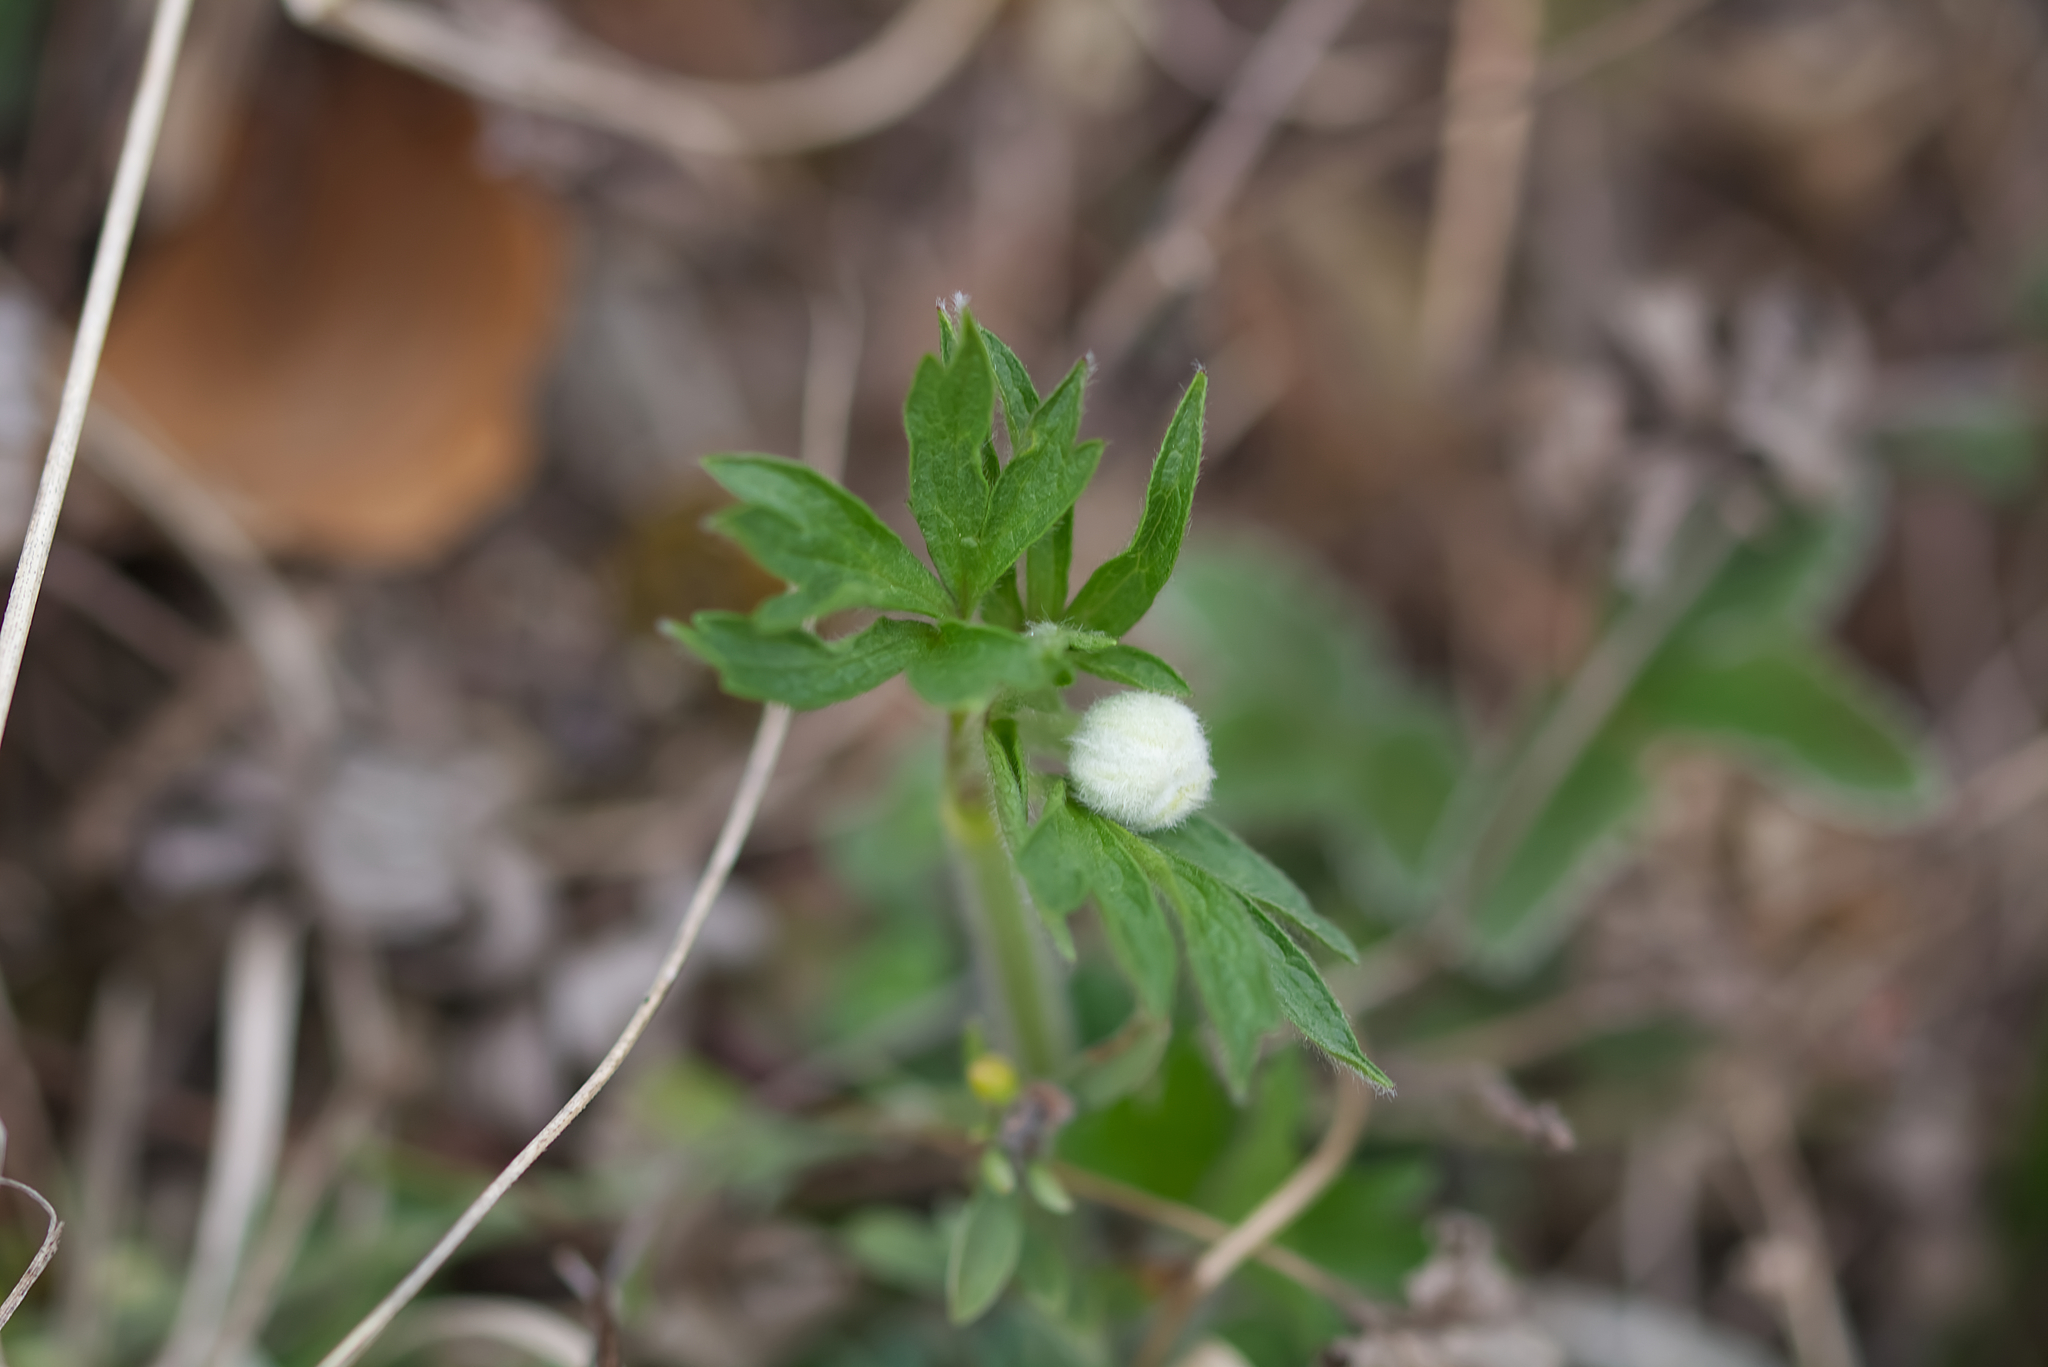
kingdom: Plantae
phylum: Tracheophyta
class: Magnoliopsida
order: Ranunculales
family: Ranunculaceae
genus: Anemone
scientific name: Anemone sylvestris
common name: Snowdrop anemone
